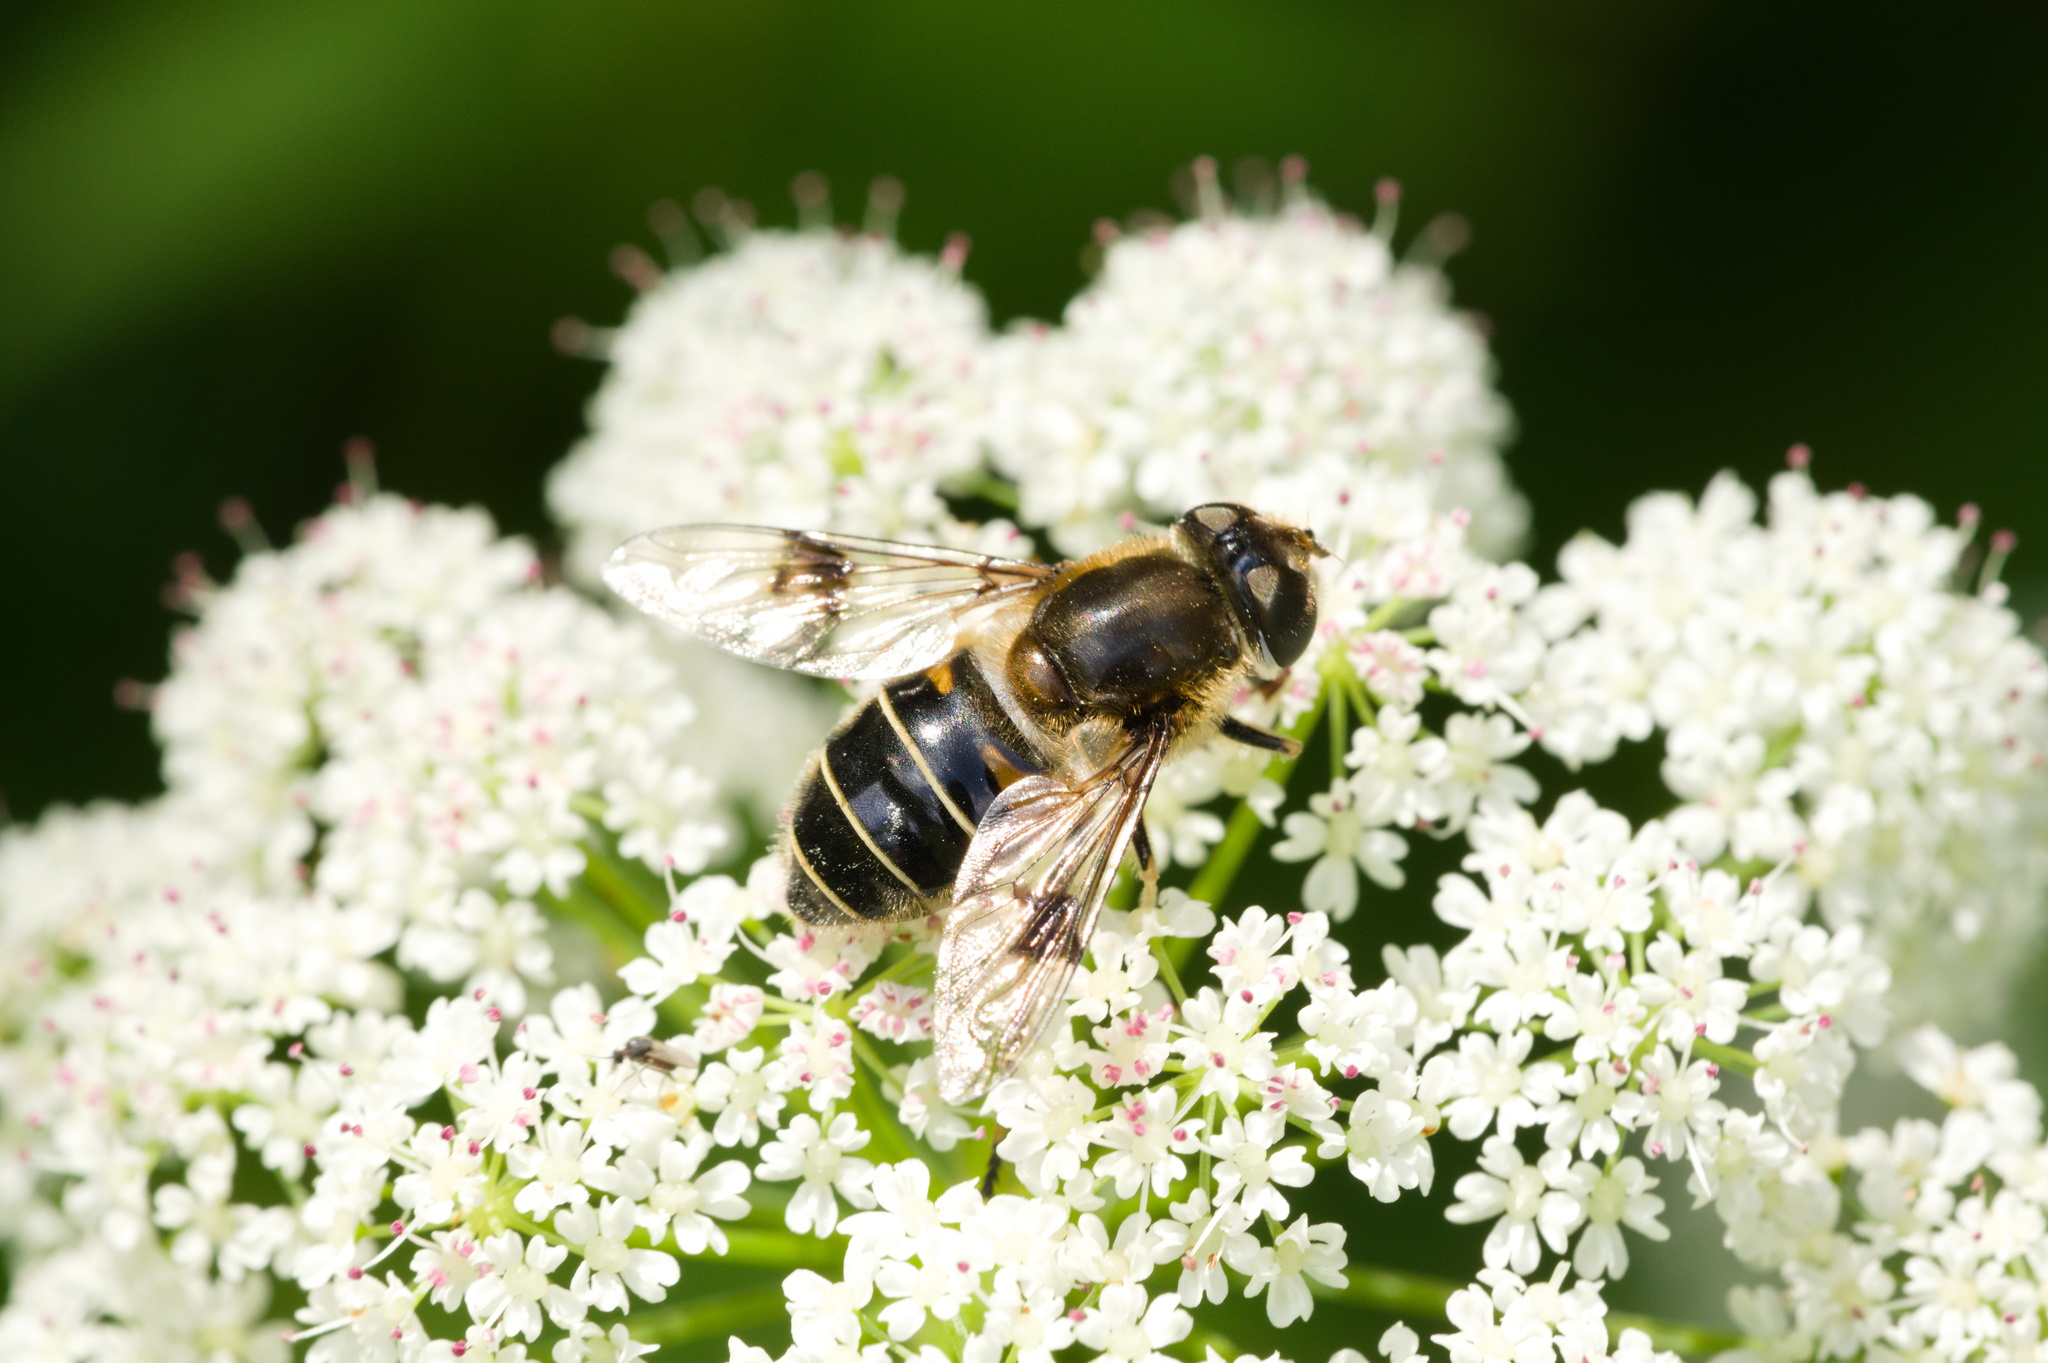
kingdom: Animalia
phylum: Arthropoda
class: Insecta
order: Diptera
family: Syrphidae
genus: Eristalis
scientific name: Eristalis rupium
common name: Hover fly
